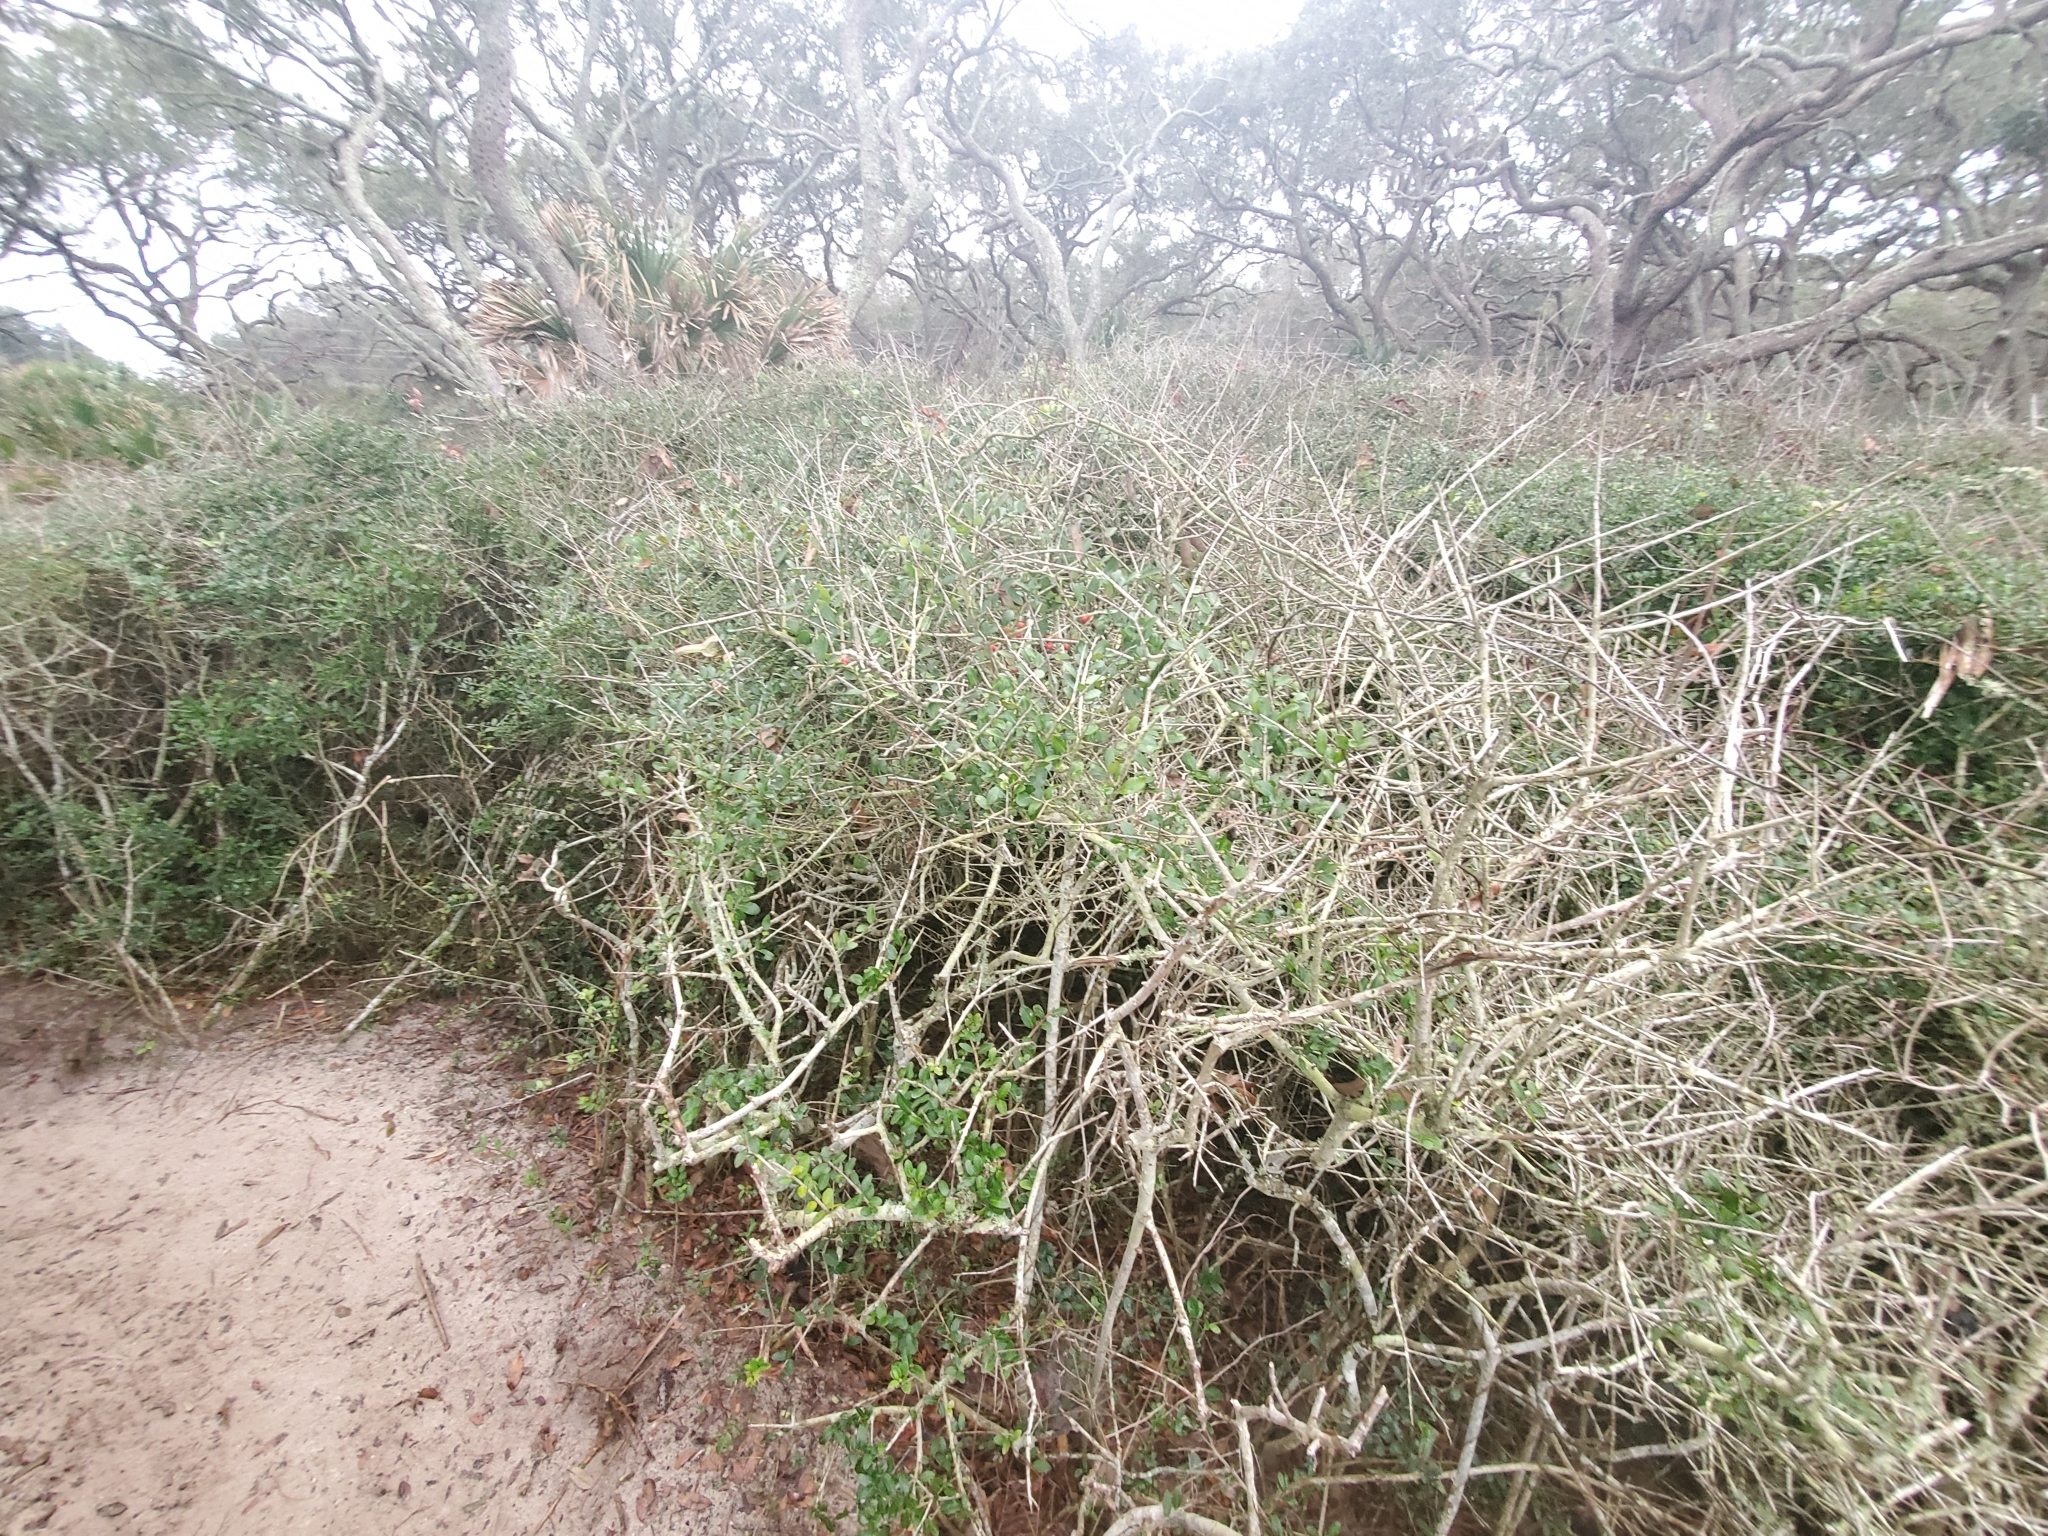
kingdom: Plantae
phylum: Tracheophyta
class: Magnoliopsida
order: Aquifoliales
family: Aquifoliaceae
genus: Ilex
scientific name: Ilex vomitoria
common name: Yaupon holly
